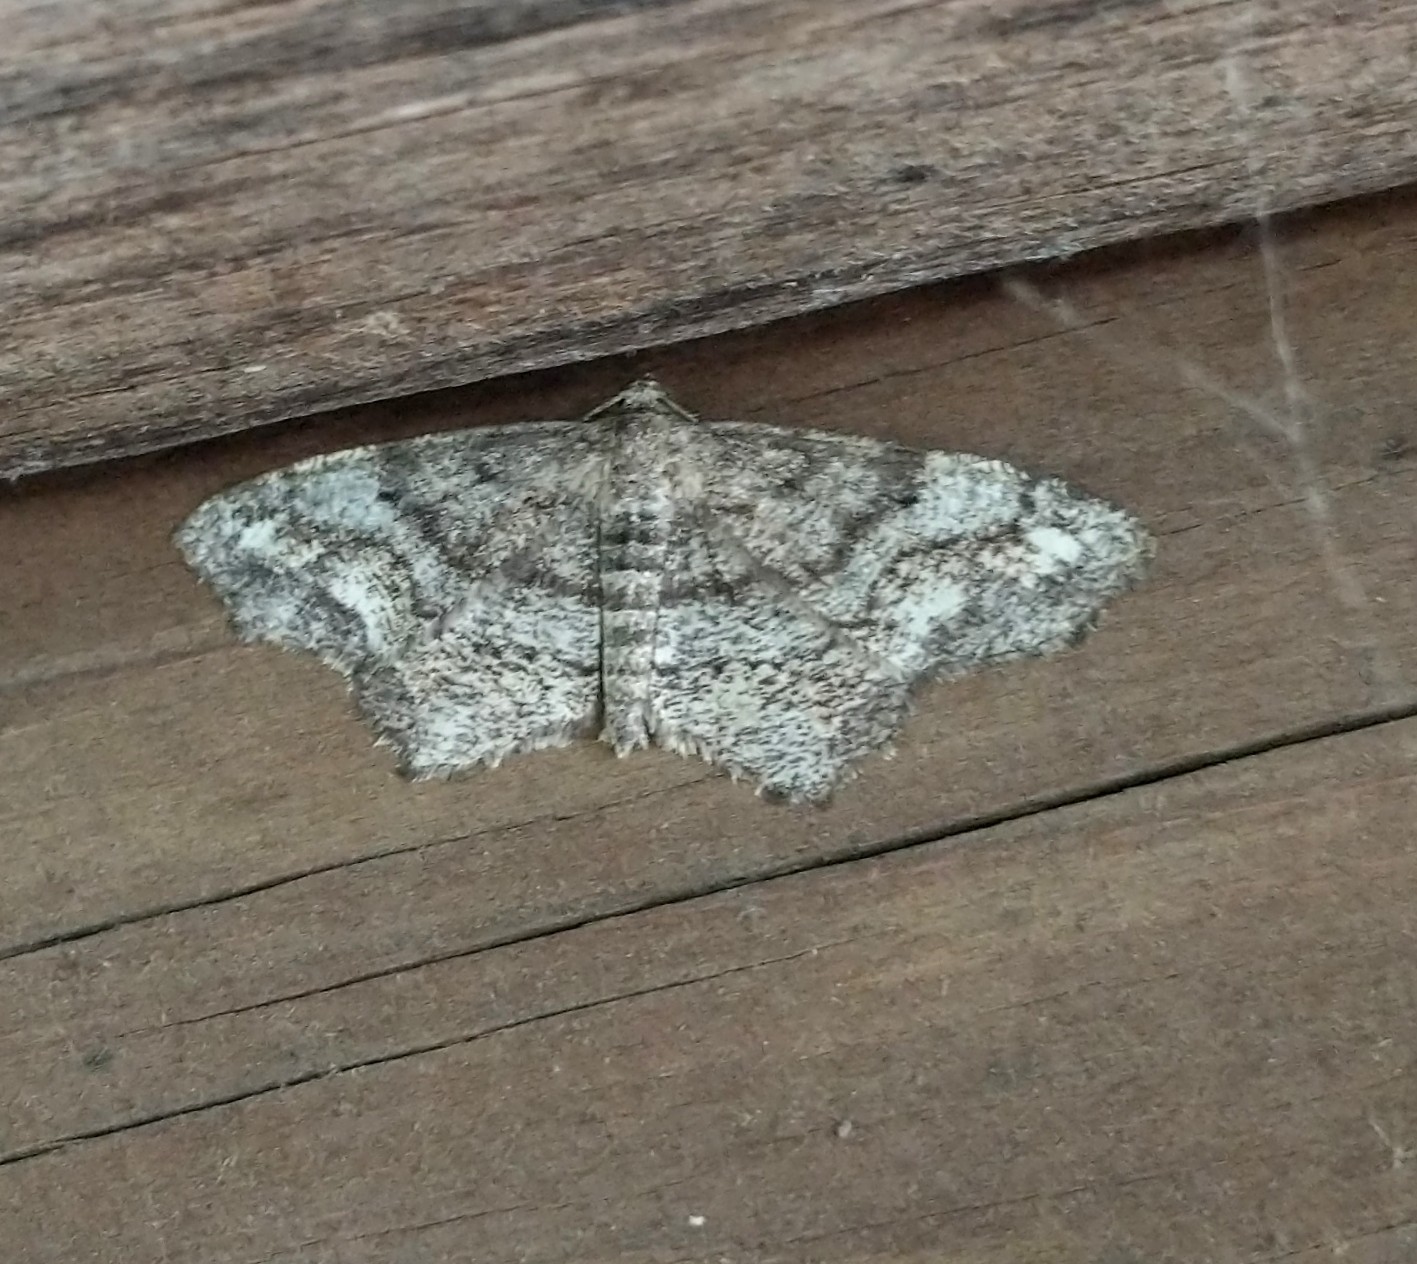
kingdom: Animalia
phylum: Arthropoda
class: Insecta
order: Lepidoptera
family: Geometridae
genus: Hypagyrtis
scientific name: Hypagyrtis unipunctata
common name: One-spotted variant
